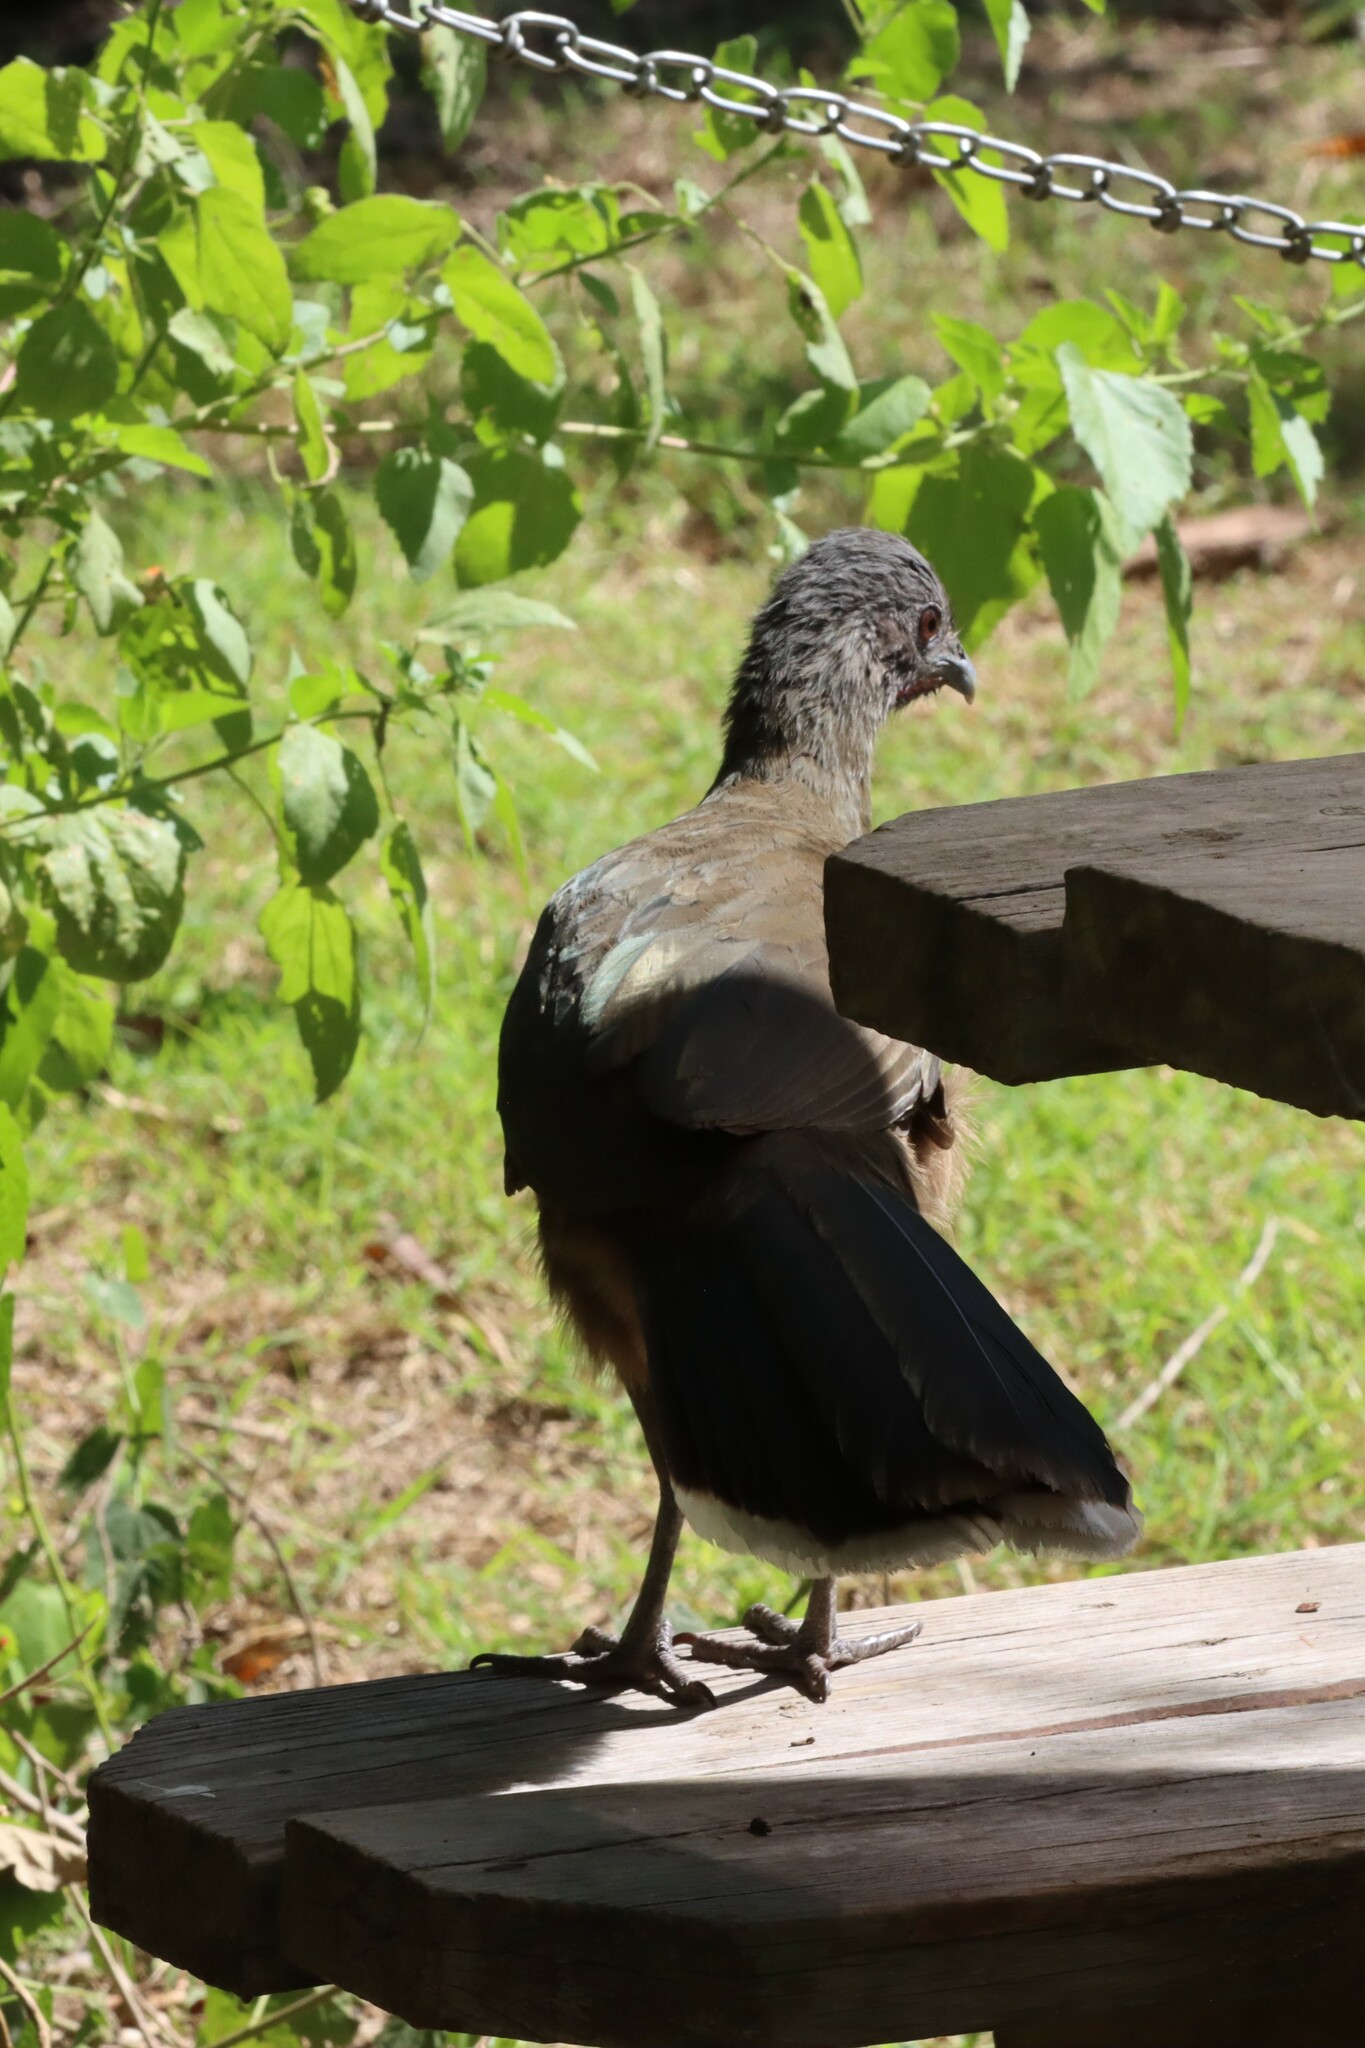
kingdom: Animalia
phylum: Chordata
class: Aves
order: Galliformes
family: Cracidae
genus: Ortalis
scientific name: Ortalis vetula
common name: Plain chachalaca
